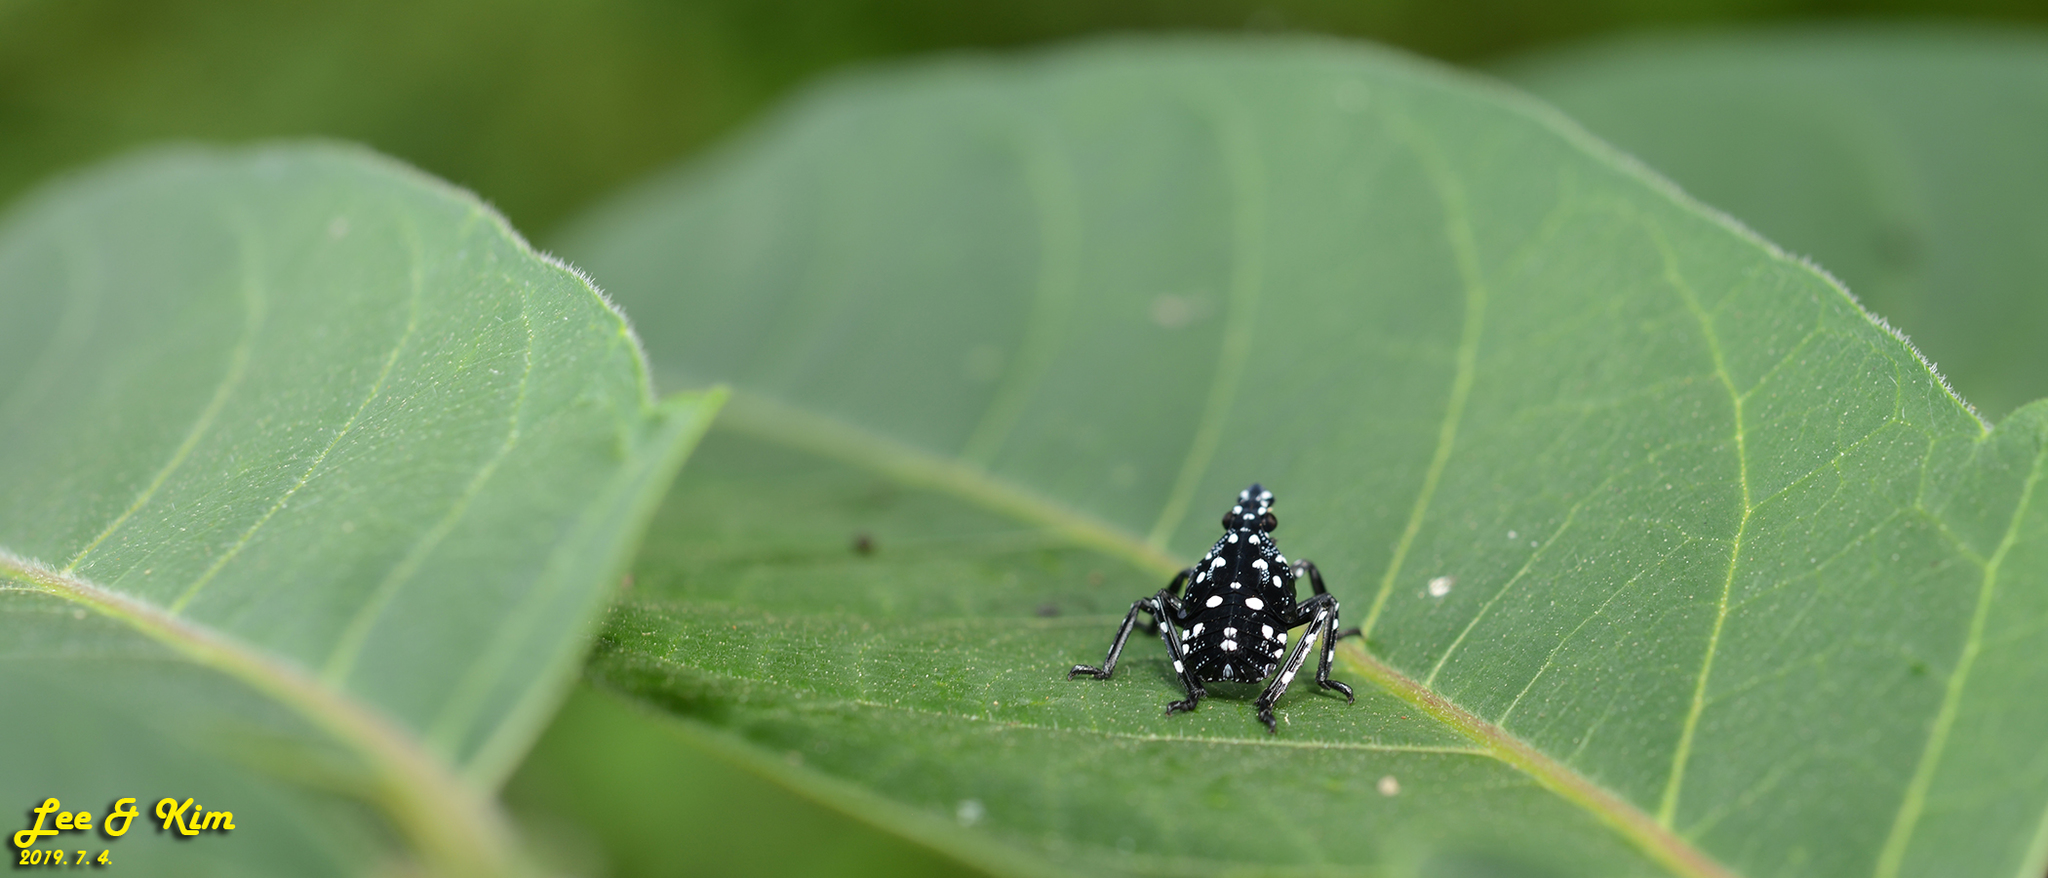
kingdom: Animalia
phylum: Arthropoda
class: Insecta
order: Hemiptera
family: Fulgoridae
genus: Lycorma
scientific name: Lycorma delicatula
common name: Spotted lanternfly
